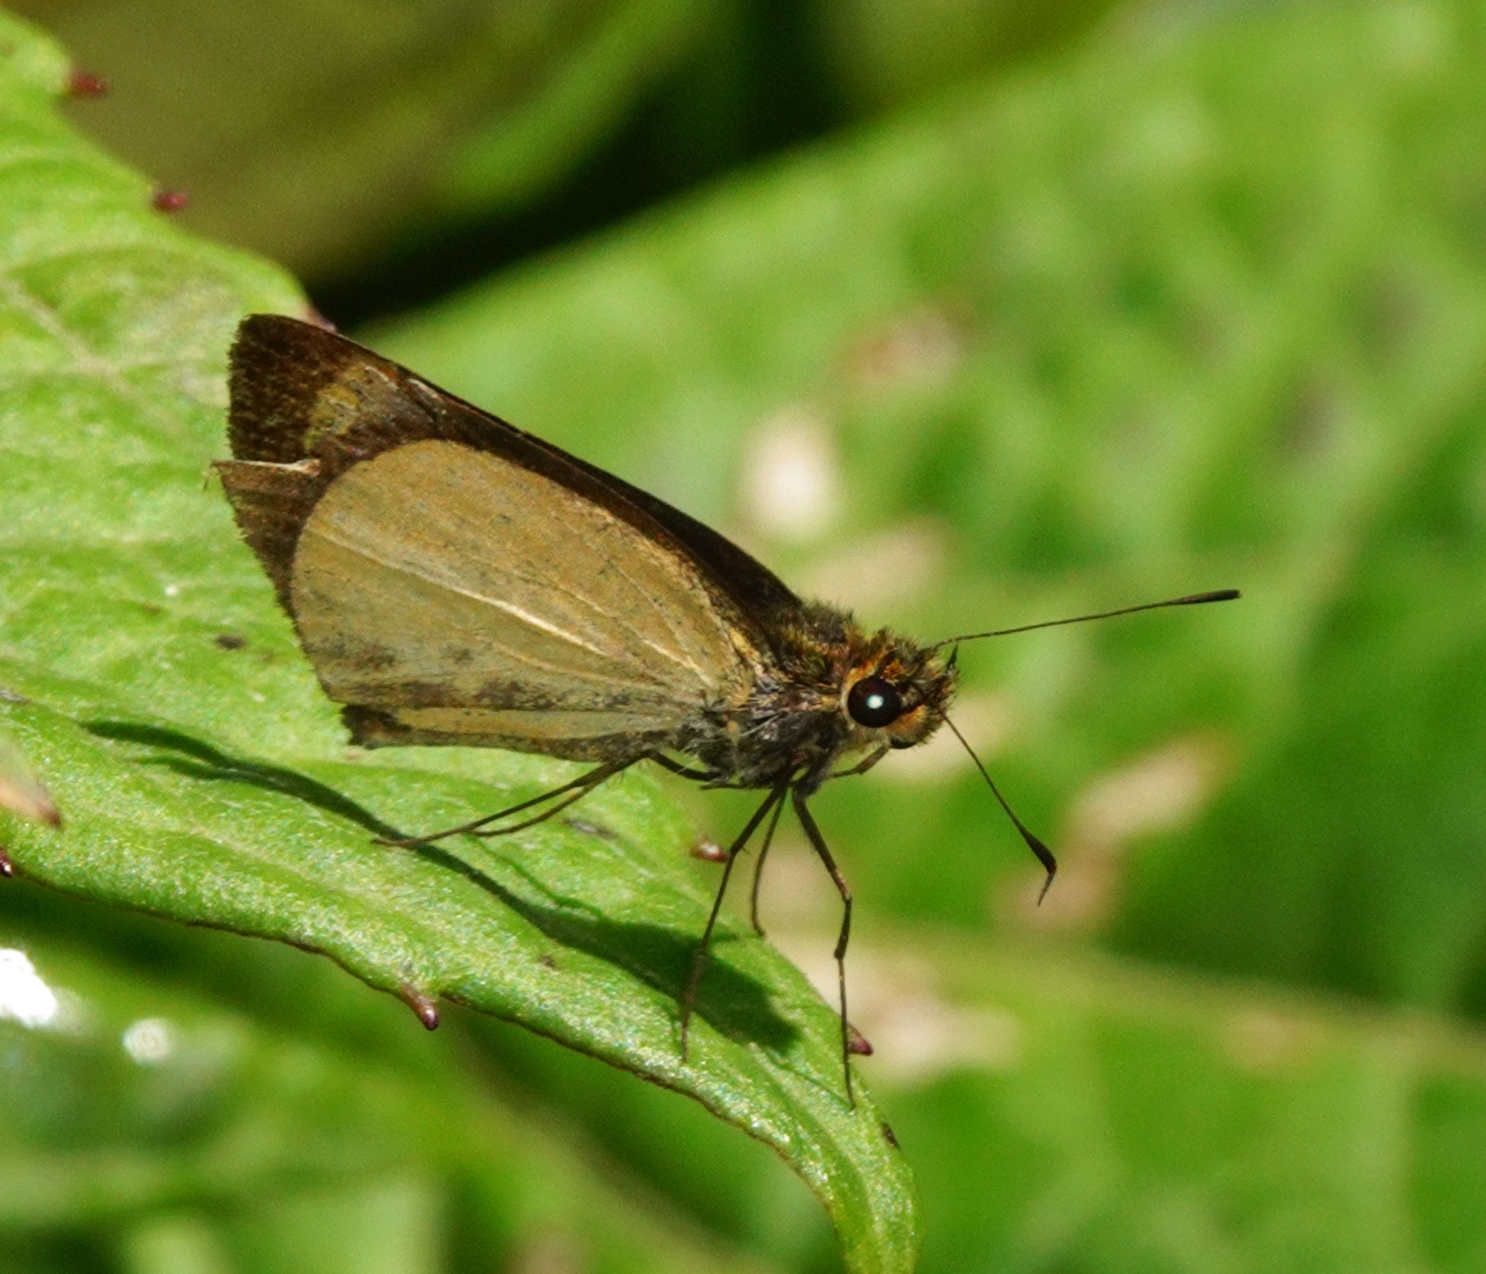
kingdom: Animalia
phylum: Arthropoda
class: Insecta
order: Lepidoptera
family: Hesperiidae
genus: Falga
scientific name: Falga jeconia
